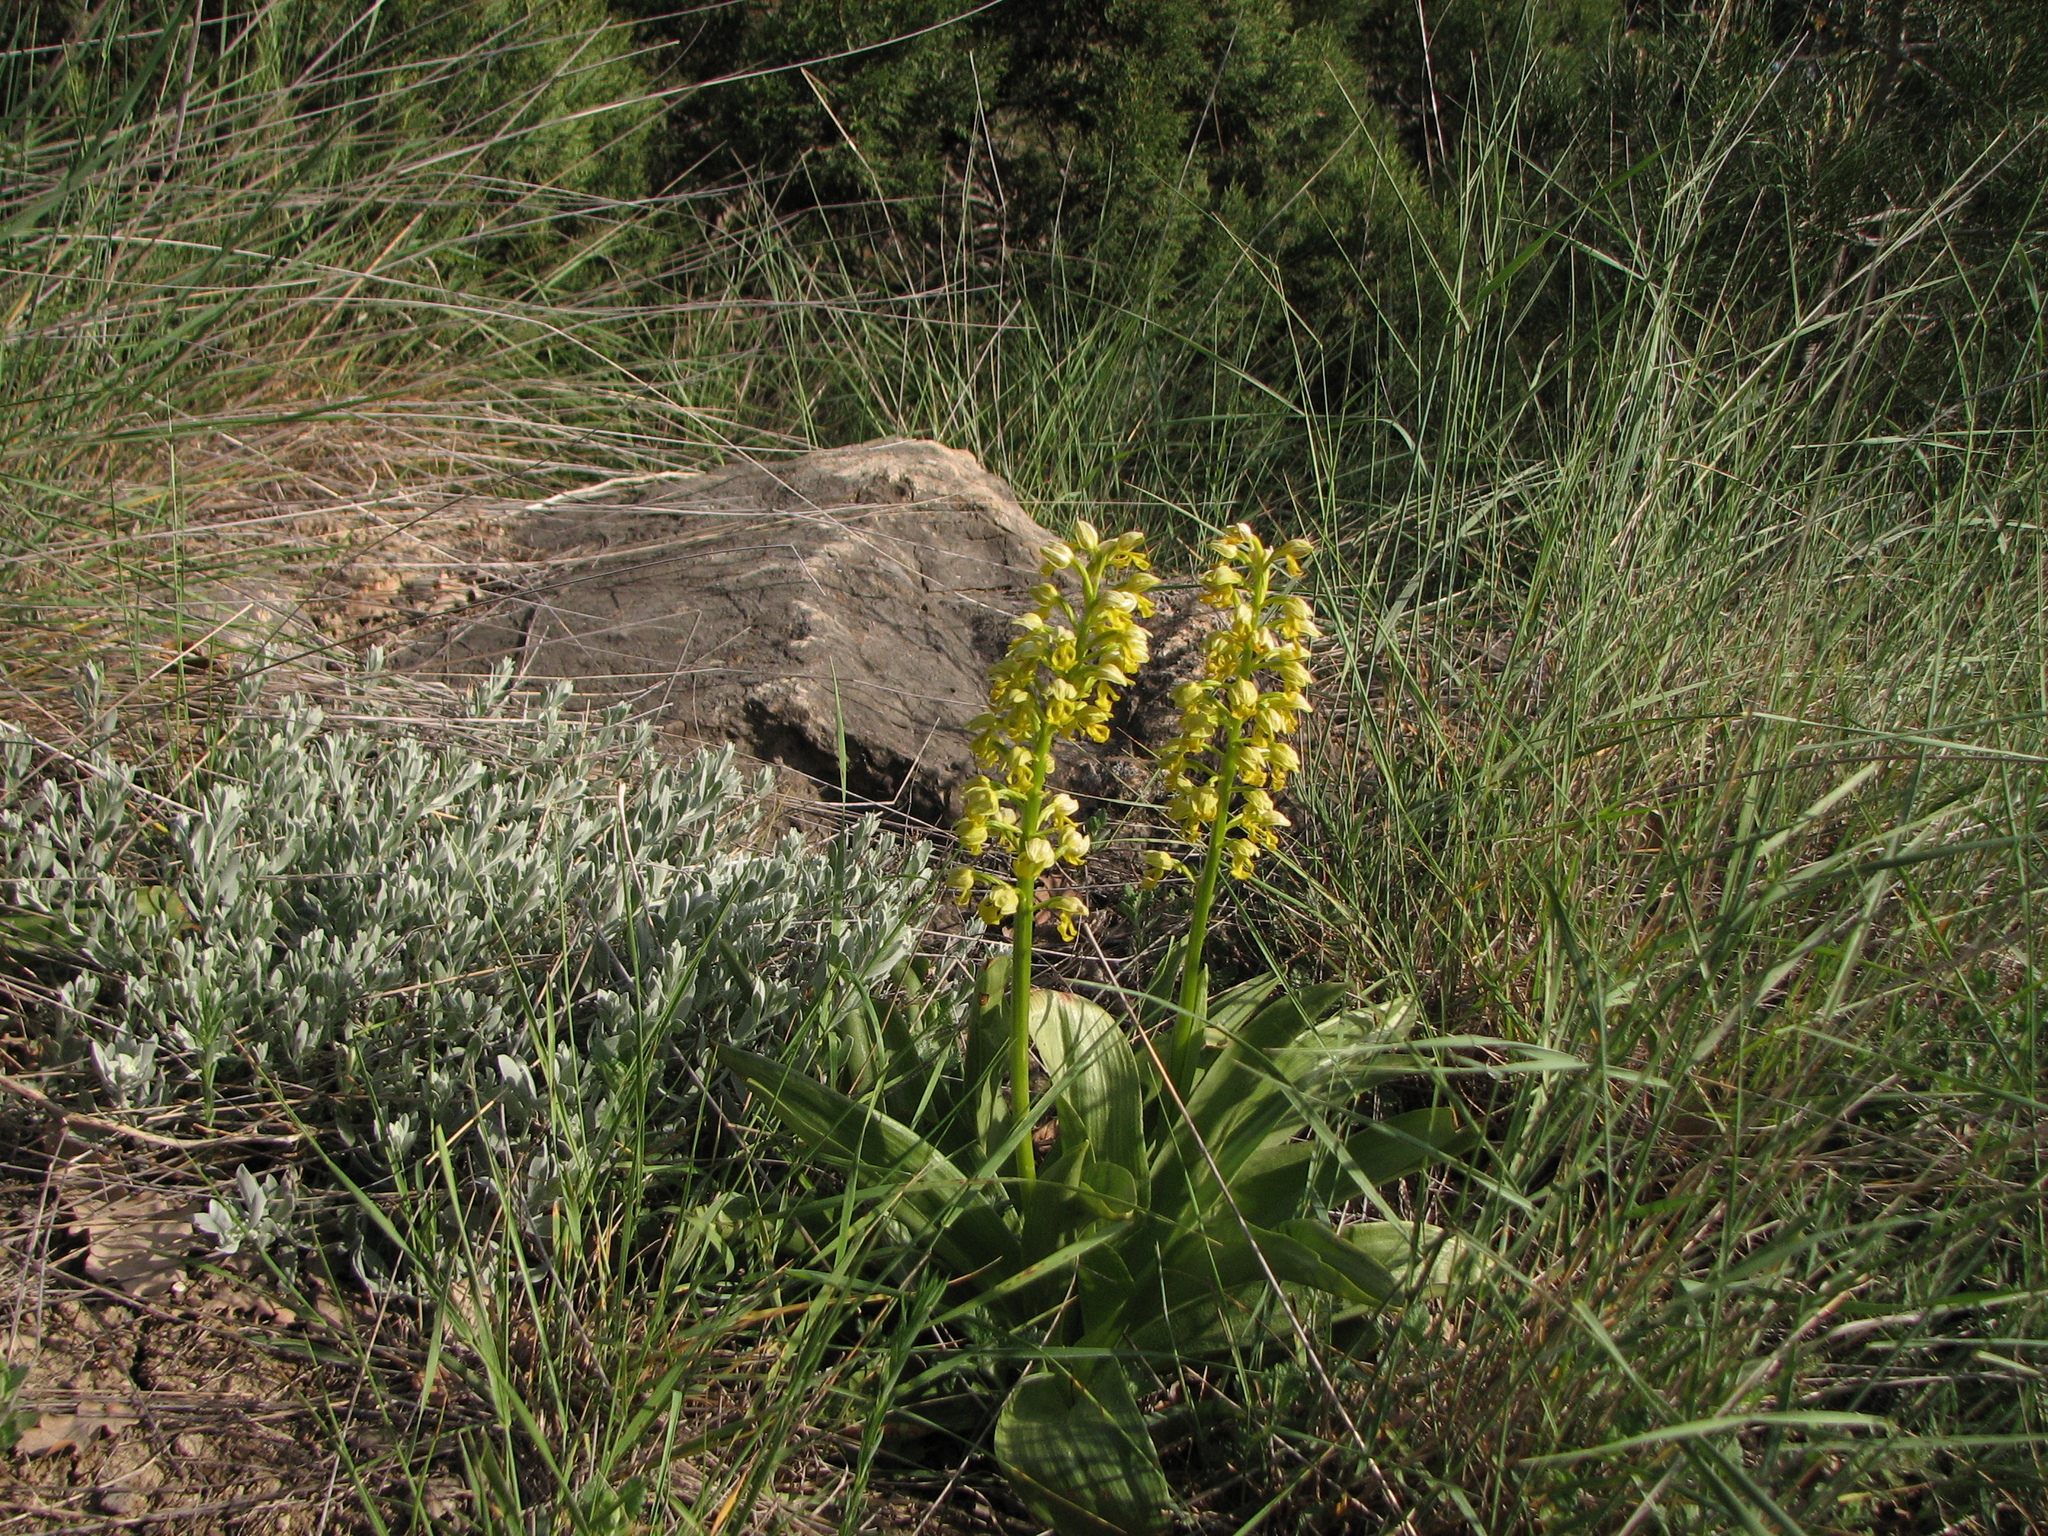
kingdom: Plantae
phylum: Tracheophyta
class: Liliopsida
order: Asparagales
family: Orchidaceae
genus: Orchis
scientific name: Orchis punctulata
